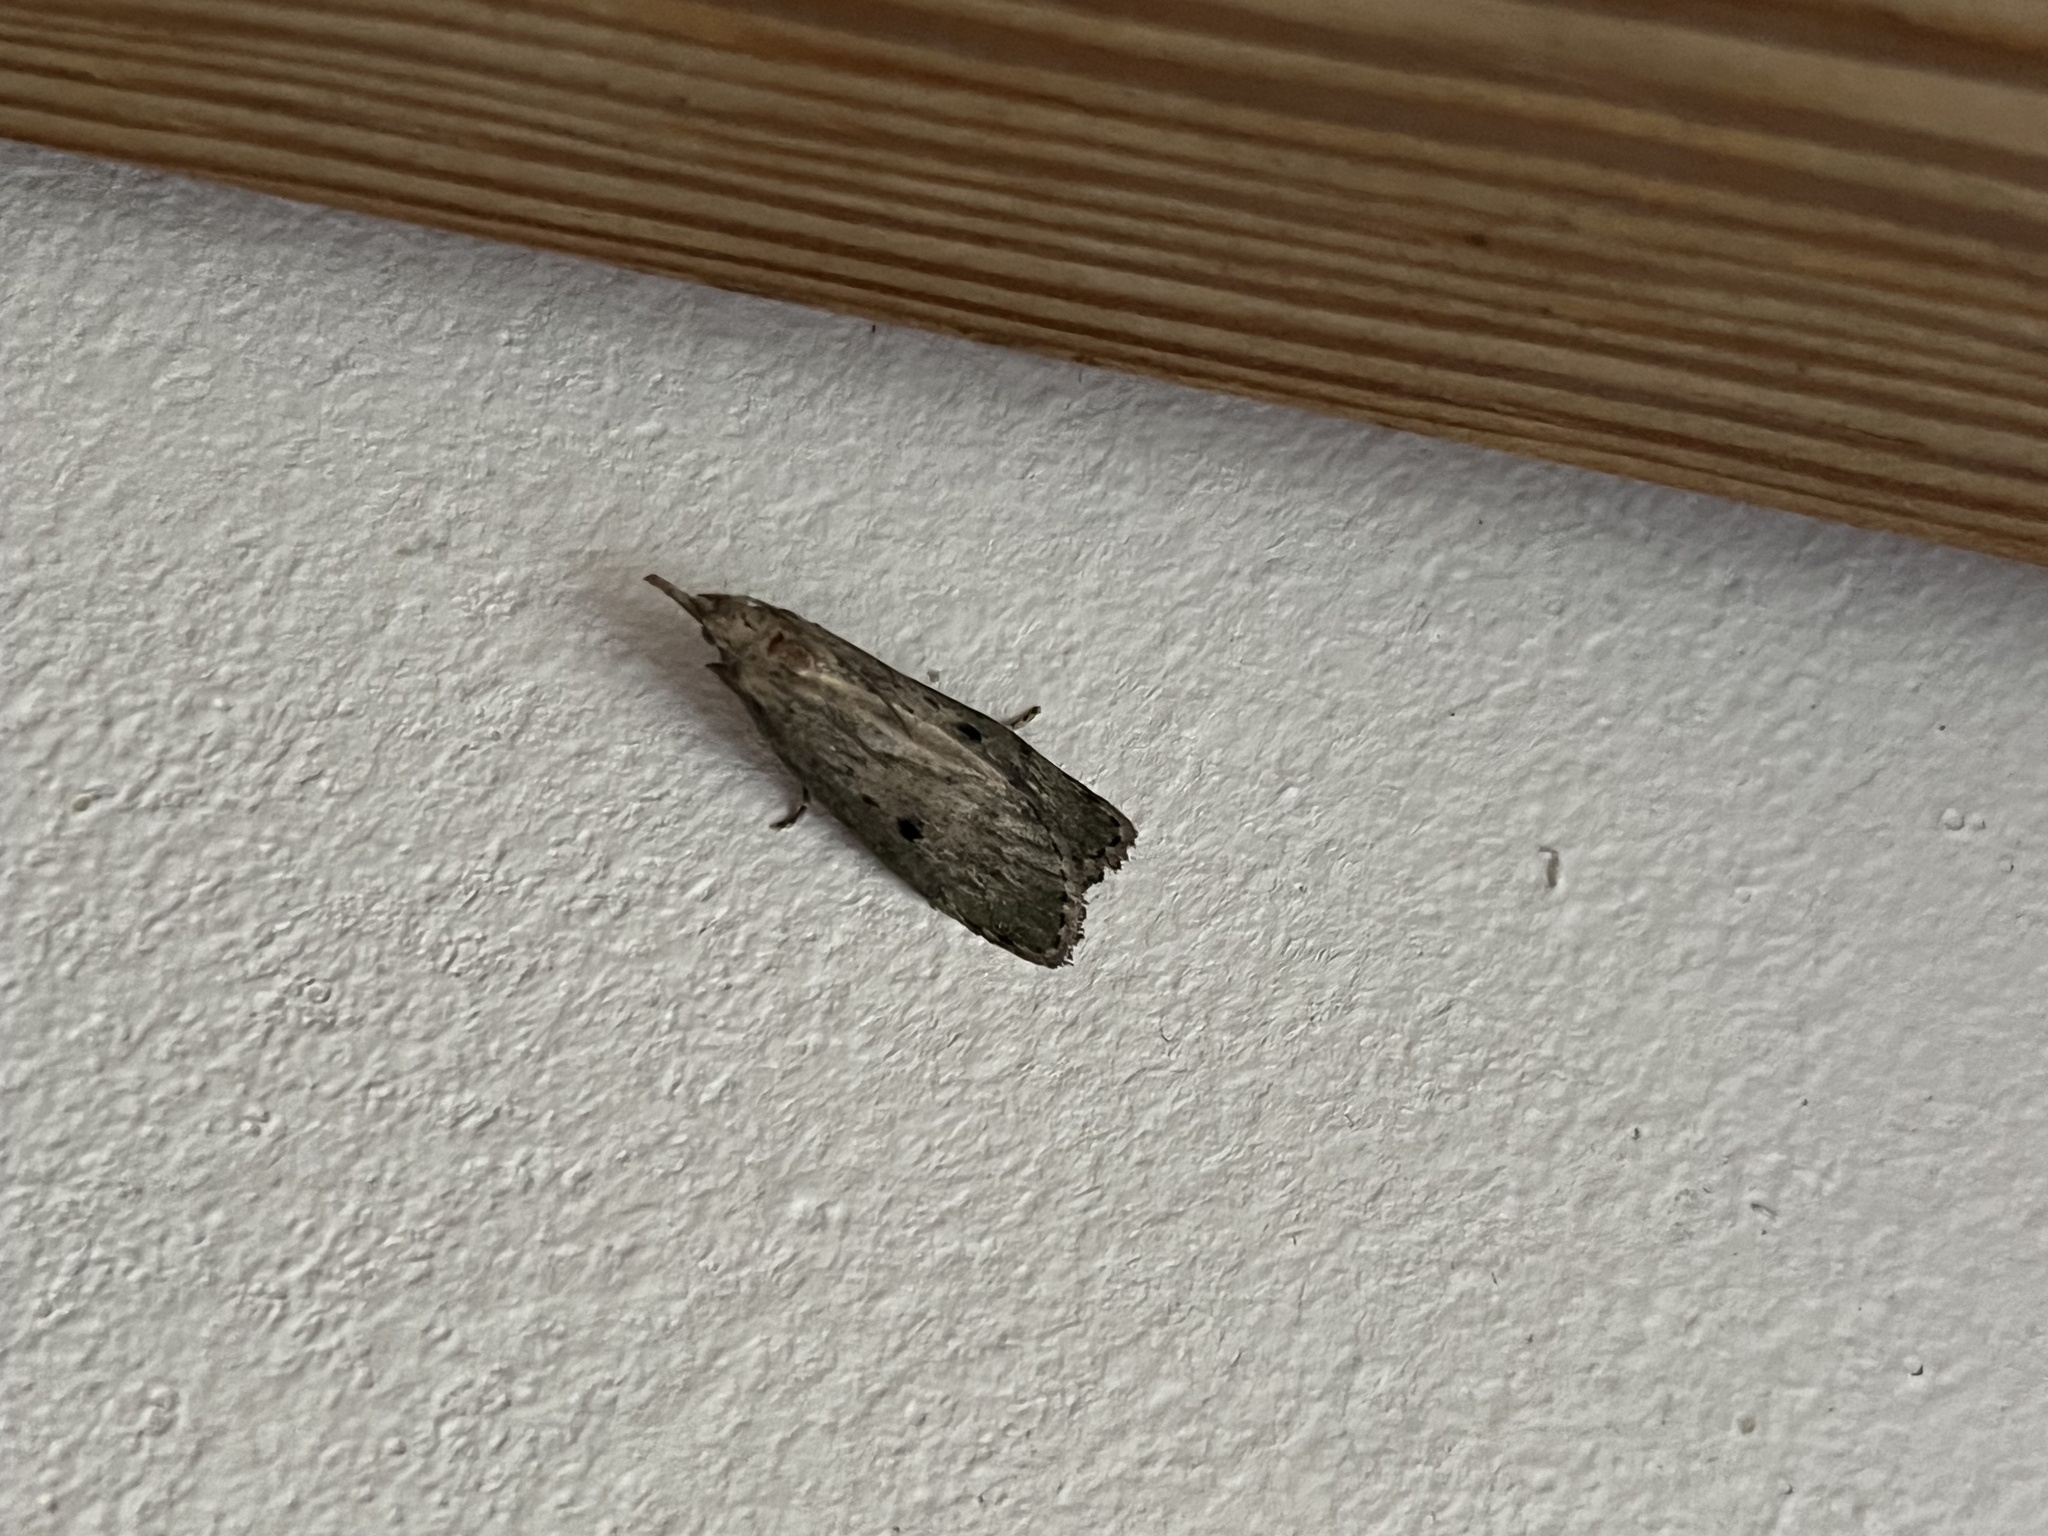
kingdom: Animalia
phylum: Arthropoda
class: Insecta
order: Lepidoptera
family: Pyralidae
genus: Aphomia
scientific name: Aphomia sociella
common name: Bee moth
